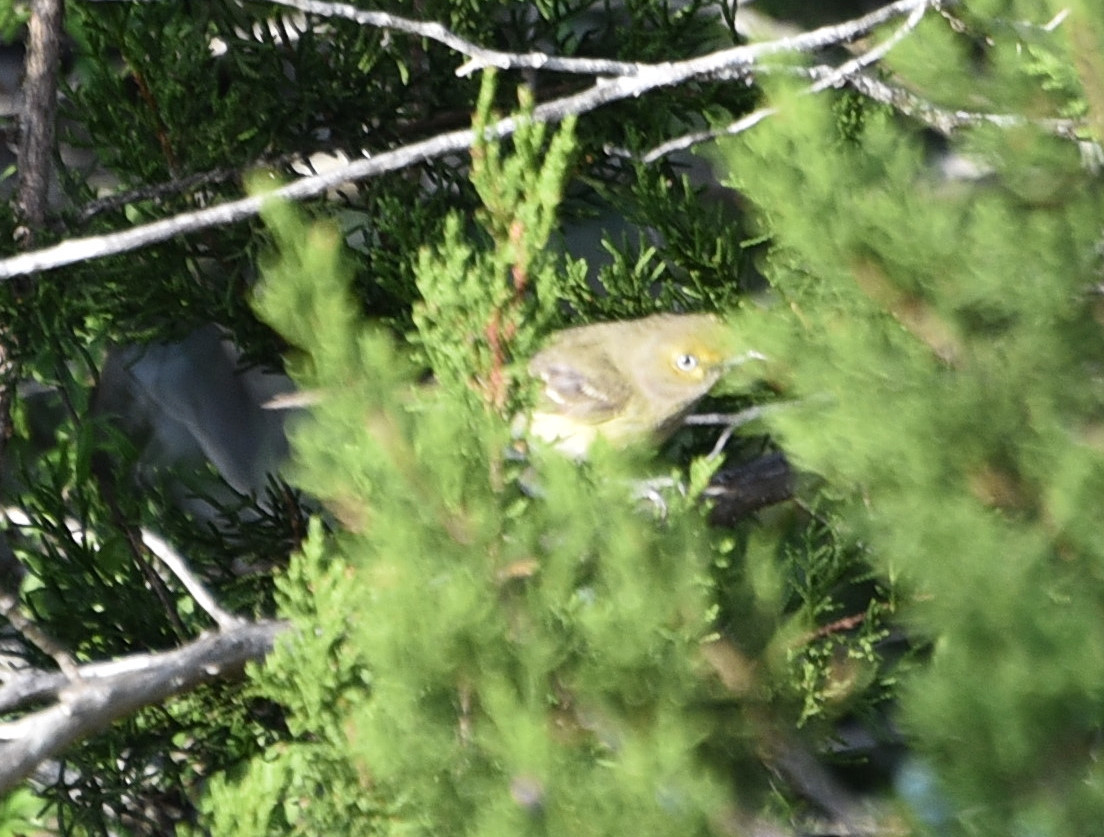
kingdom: Animalia
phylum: Chordata
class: Aves
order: Passeriformes
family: Vireonidae
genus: Vireo
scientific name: Vireo griseus
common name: White-eyed vireo
